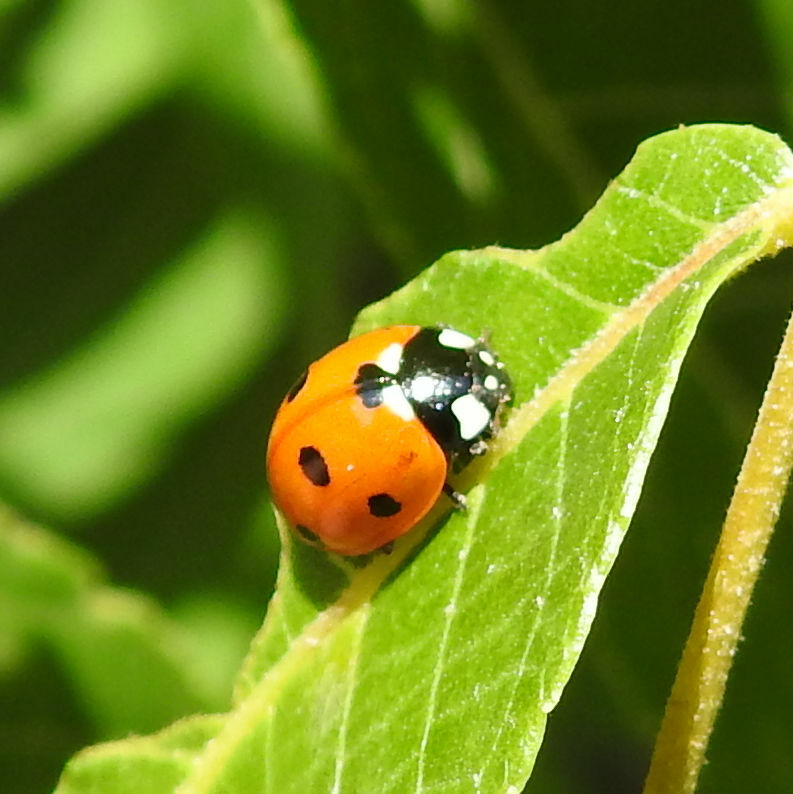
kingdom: Animalia
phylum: Arthropoda
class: Insecta
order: Coleoptera
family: Coccinellidae
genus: Coccinella
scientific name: Coccinella septempunctata
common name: Sevenspotted lady beetle
